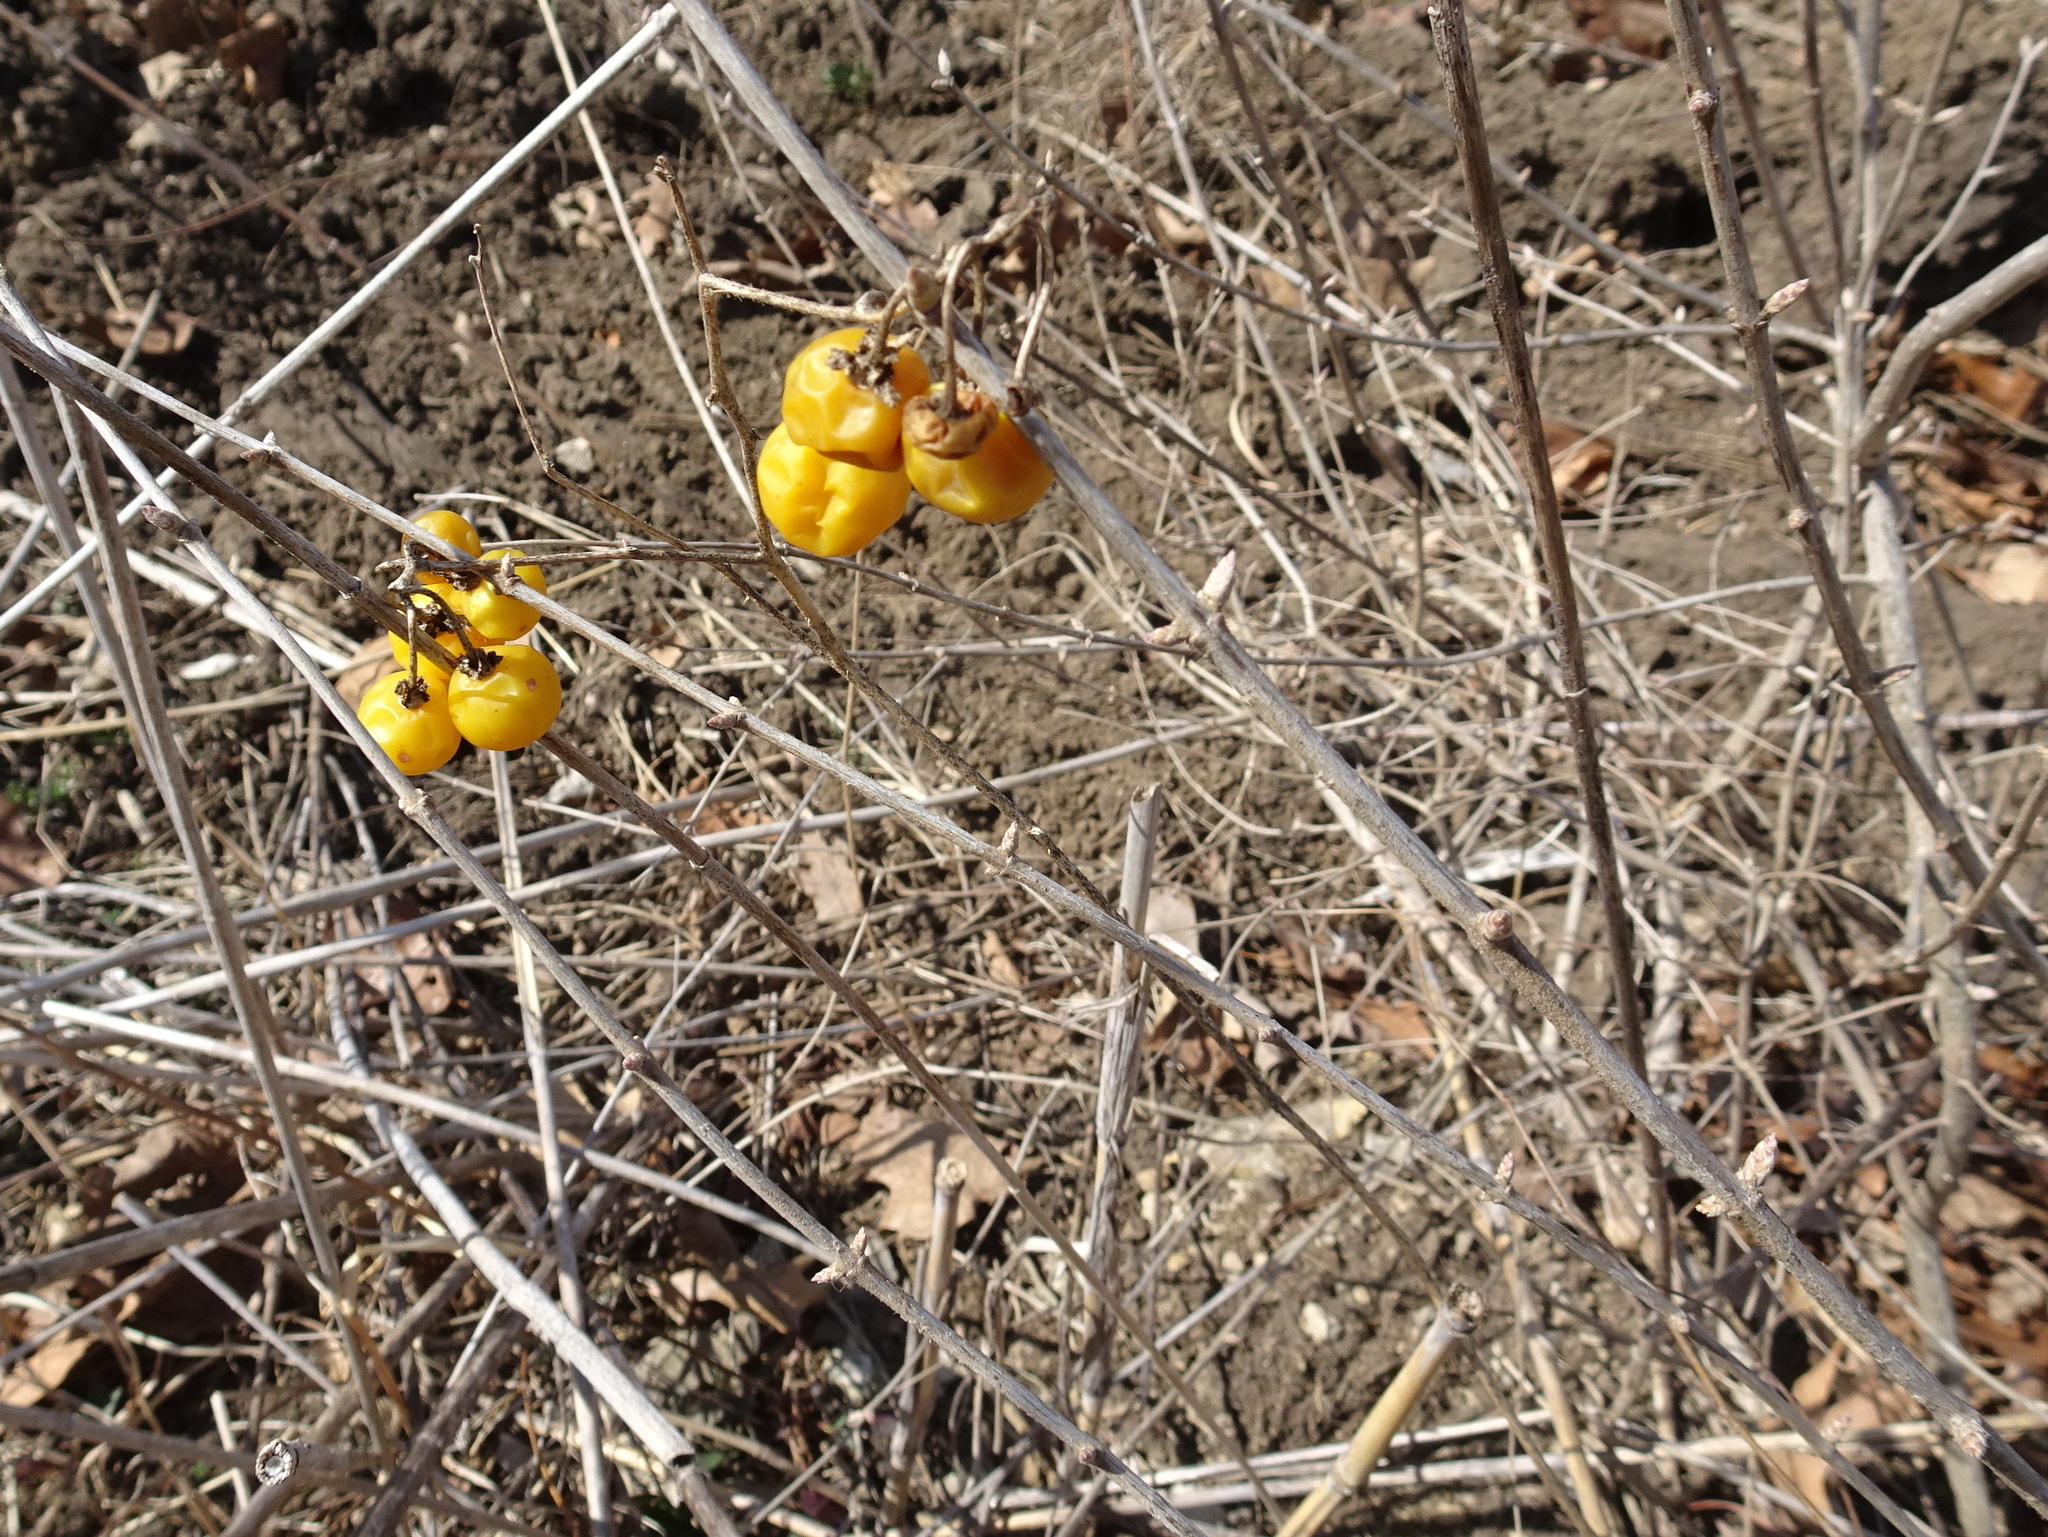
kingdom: Plantae
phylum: Tracheophyta
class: Magnoliopsida
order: Solanales
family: Solanaceae
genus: Solanum
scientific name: Solanum carolinense
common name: Horse-nettle
